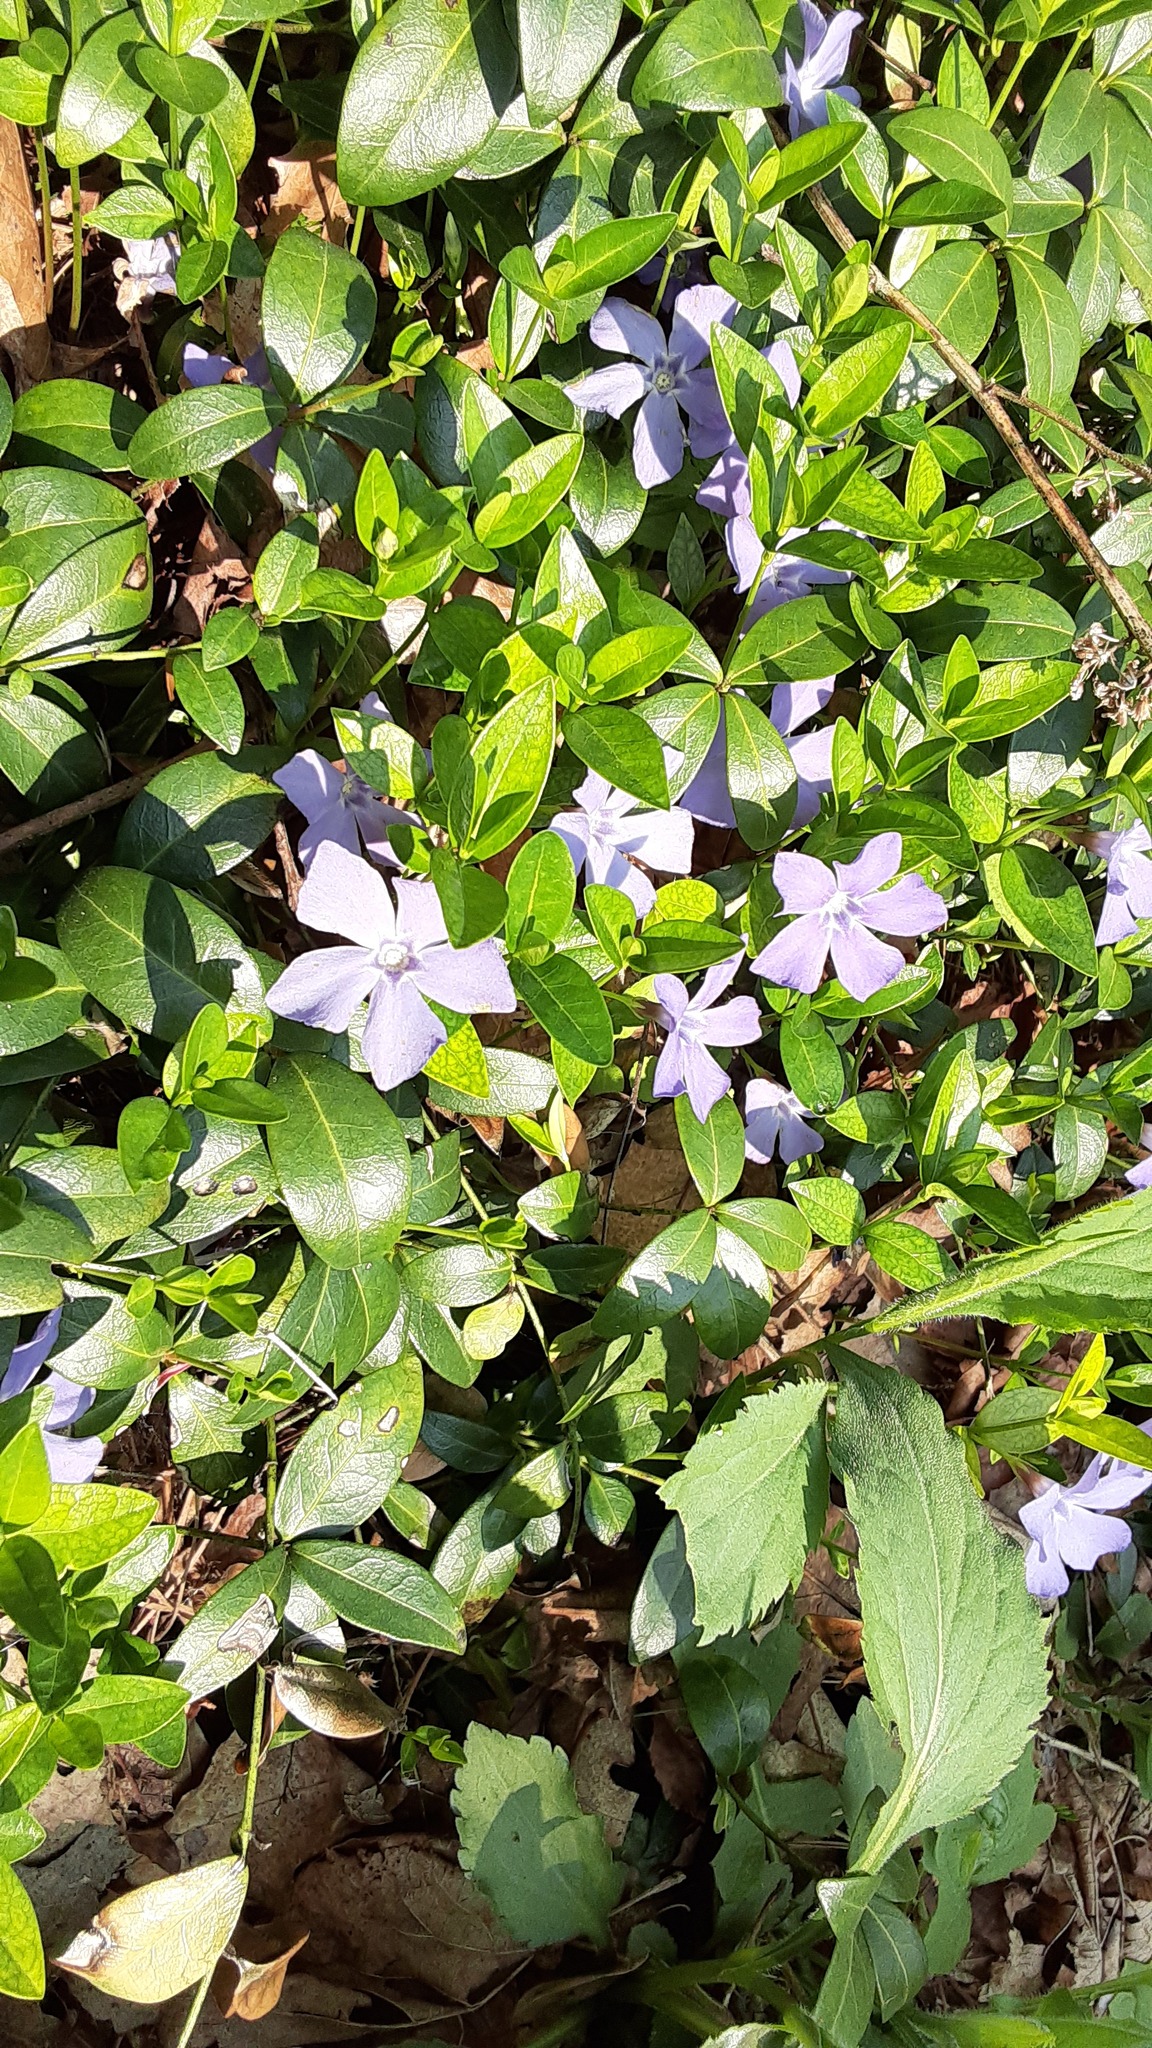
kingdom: Plantae
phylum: Tracheophyta
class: Magnoliopsida
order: Gentianales
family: Apocynaceae
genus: Vinca
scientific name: Vinca minor
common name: Lesser periwinkle
